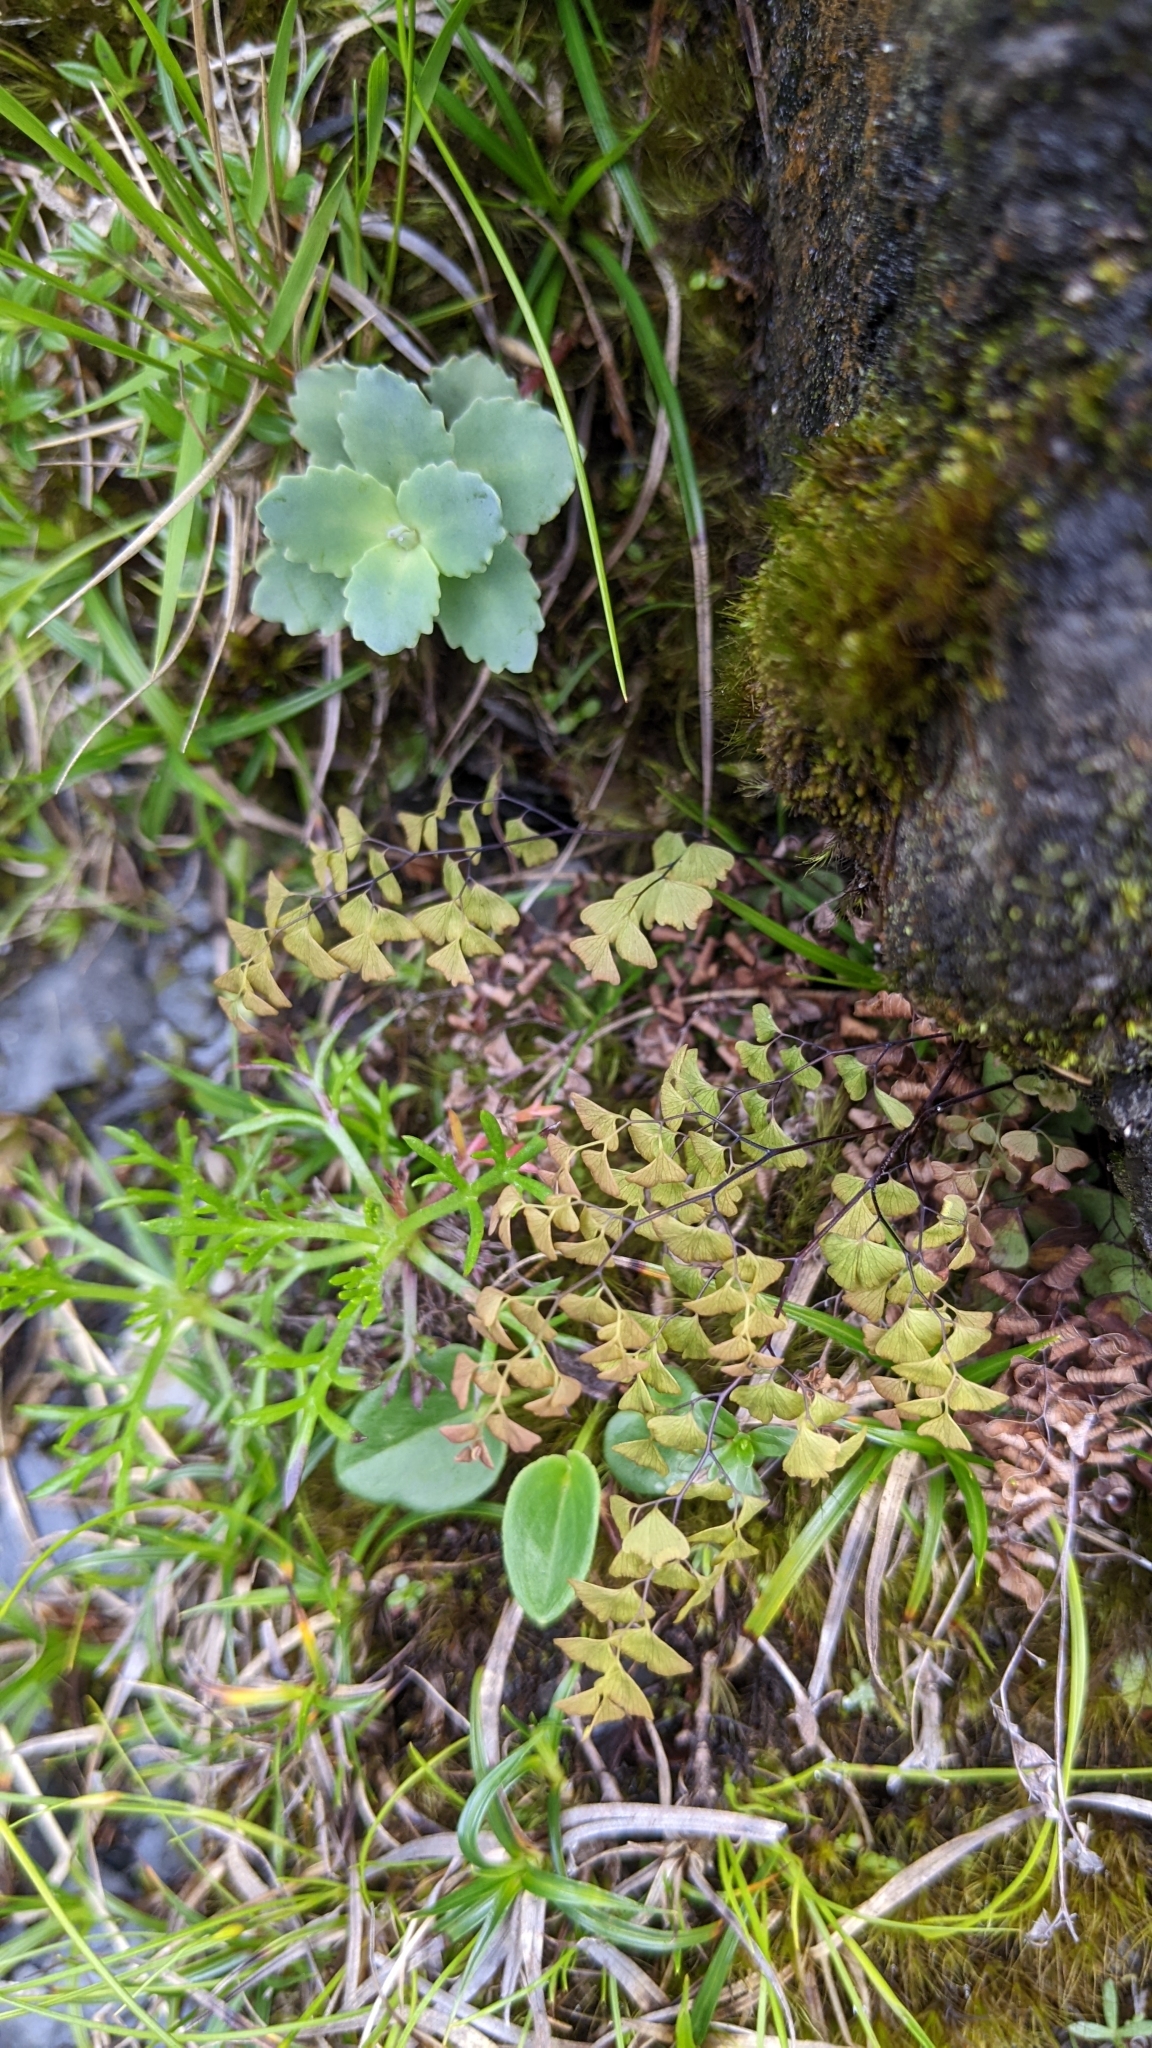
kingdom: Plantae
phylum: Tracheophyta
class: Polypodiopsida
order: Polypodiales
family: Pteridaceae
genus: Adiantum
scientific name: Adiantum taiwanianum
